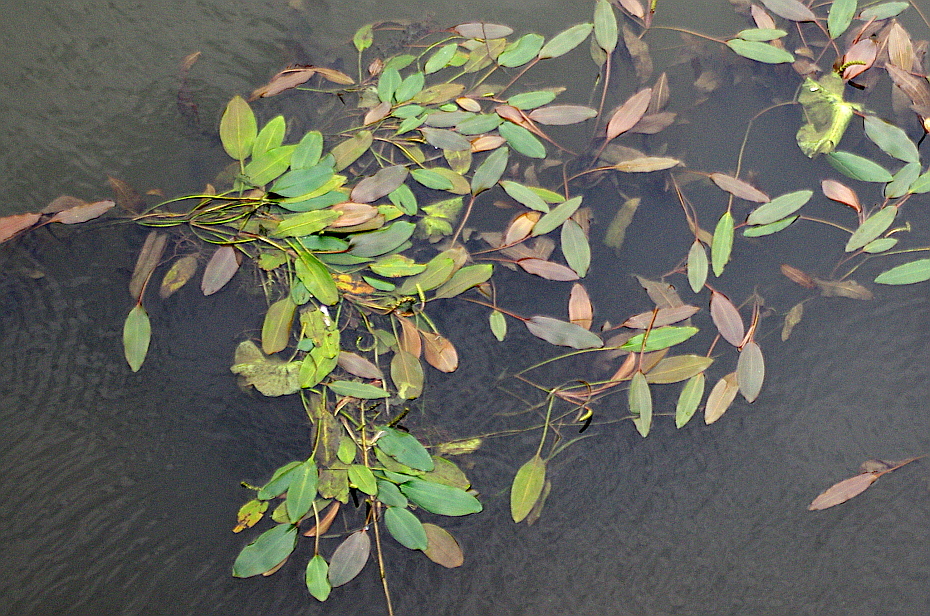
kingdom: Plantae
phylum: Tracheophyta
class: Liliopsida
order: Alismatales
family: Potamogetonaceae
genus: Potamogeton
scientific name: Potamogeton nodosus
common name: Loddon pondweed
